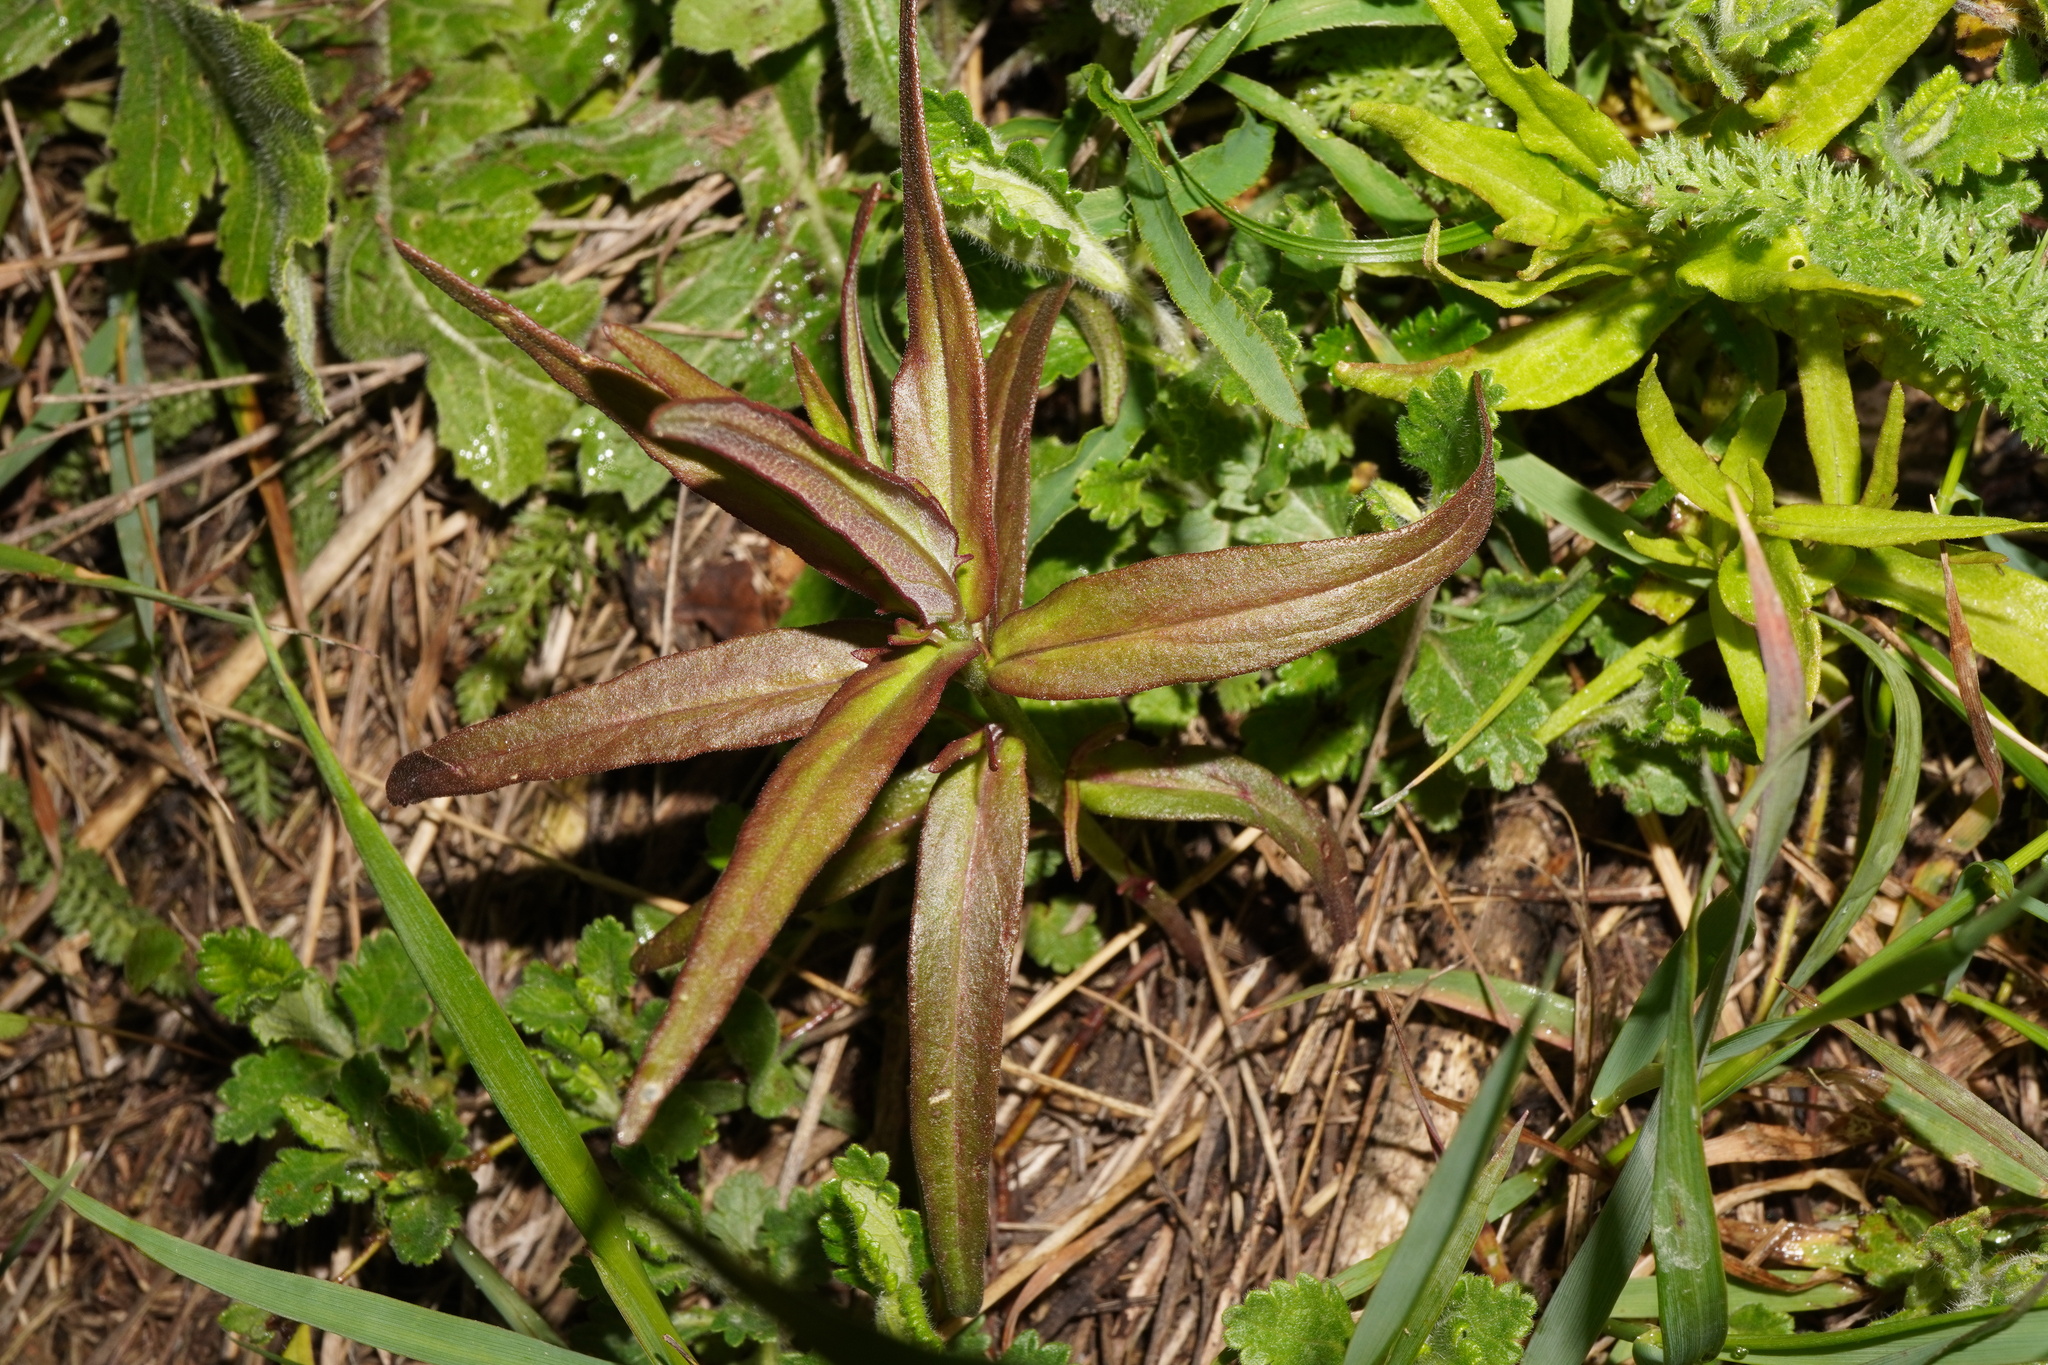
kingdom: Plantae
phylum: Tracheophyta
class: Magnoliopsida
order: Lamiales
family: Orobanchaceae
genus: Melampyrum
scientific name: Melampyrum arvense
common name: Field cow-wheat
